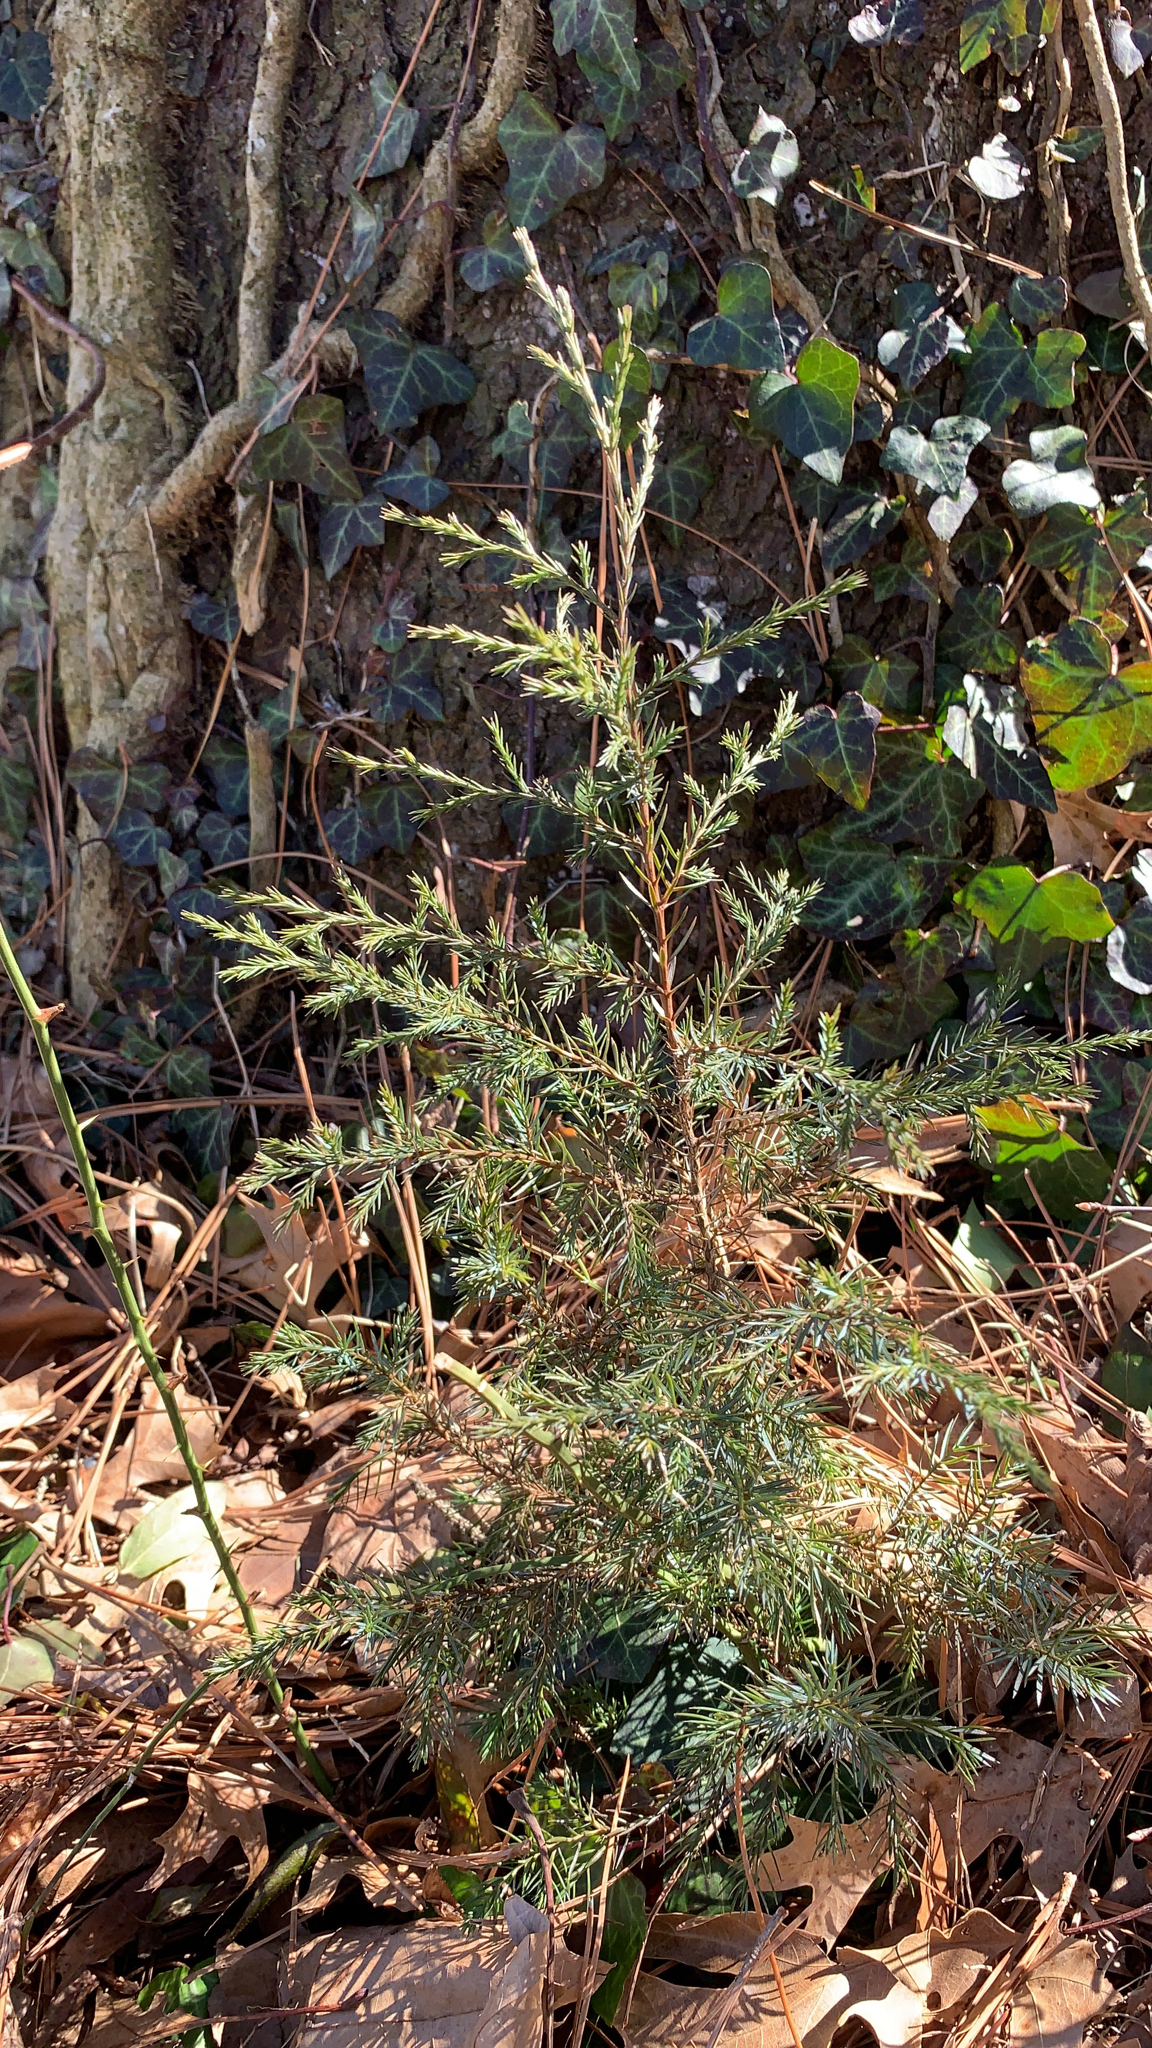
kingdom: Plantae
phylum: Tracheophyta
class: Pinopsida
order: Pinales
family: Cupressaceae
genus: Juniperus
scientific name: Juniperus virginiana
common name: Red juniper
